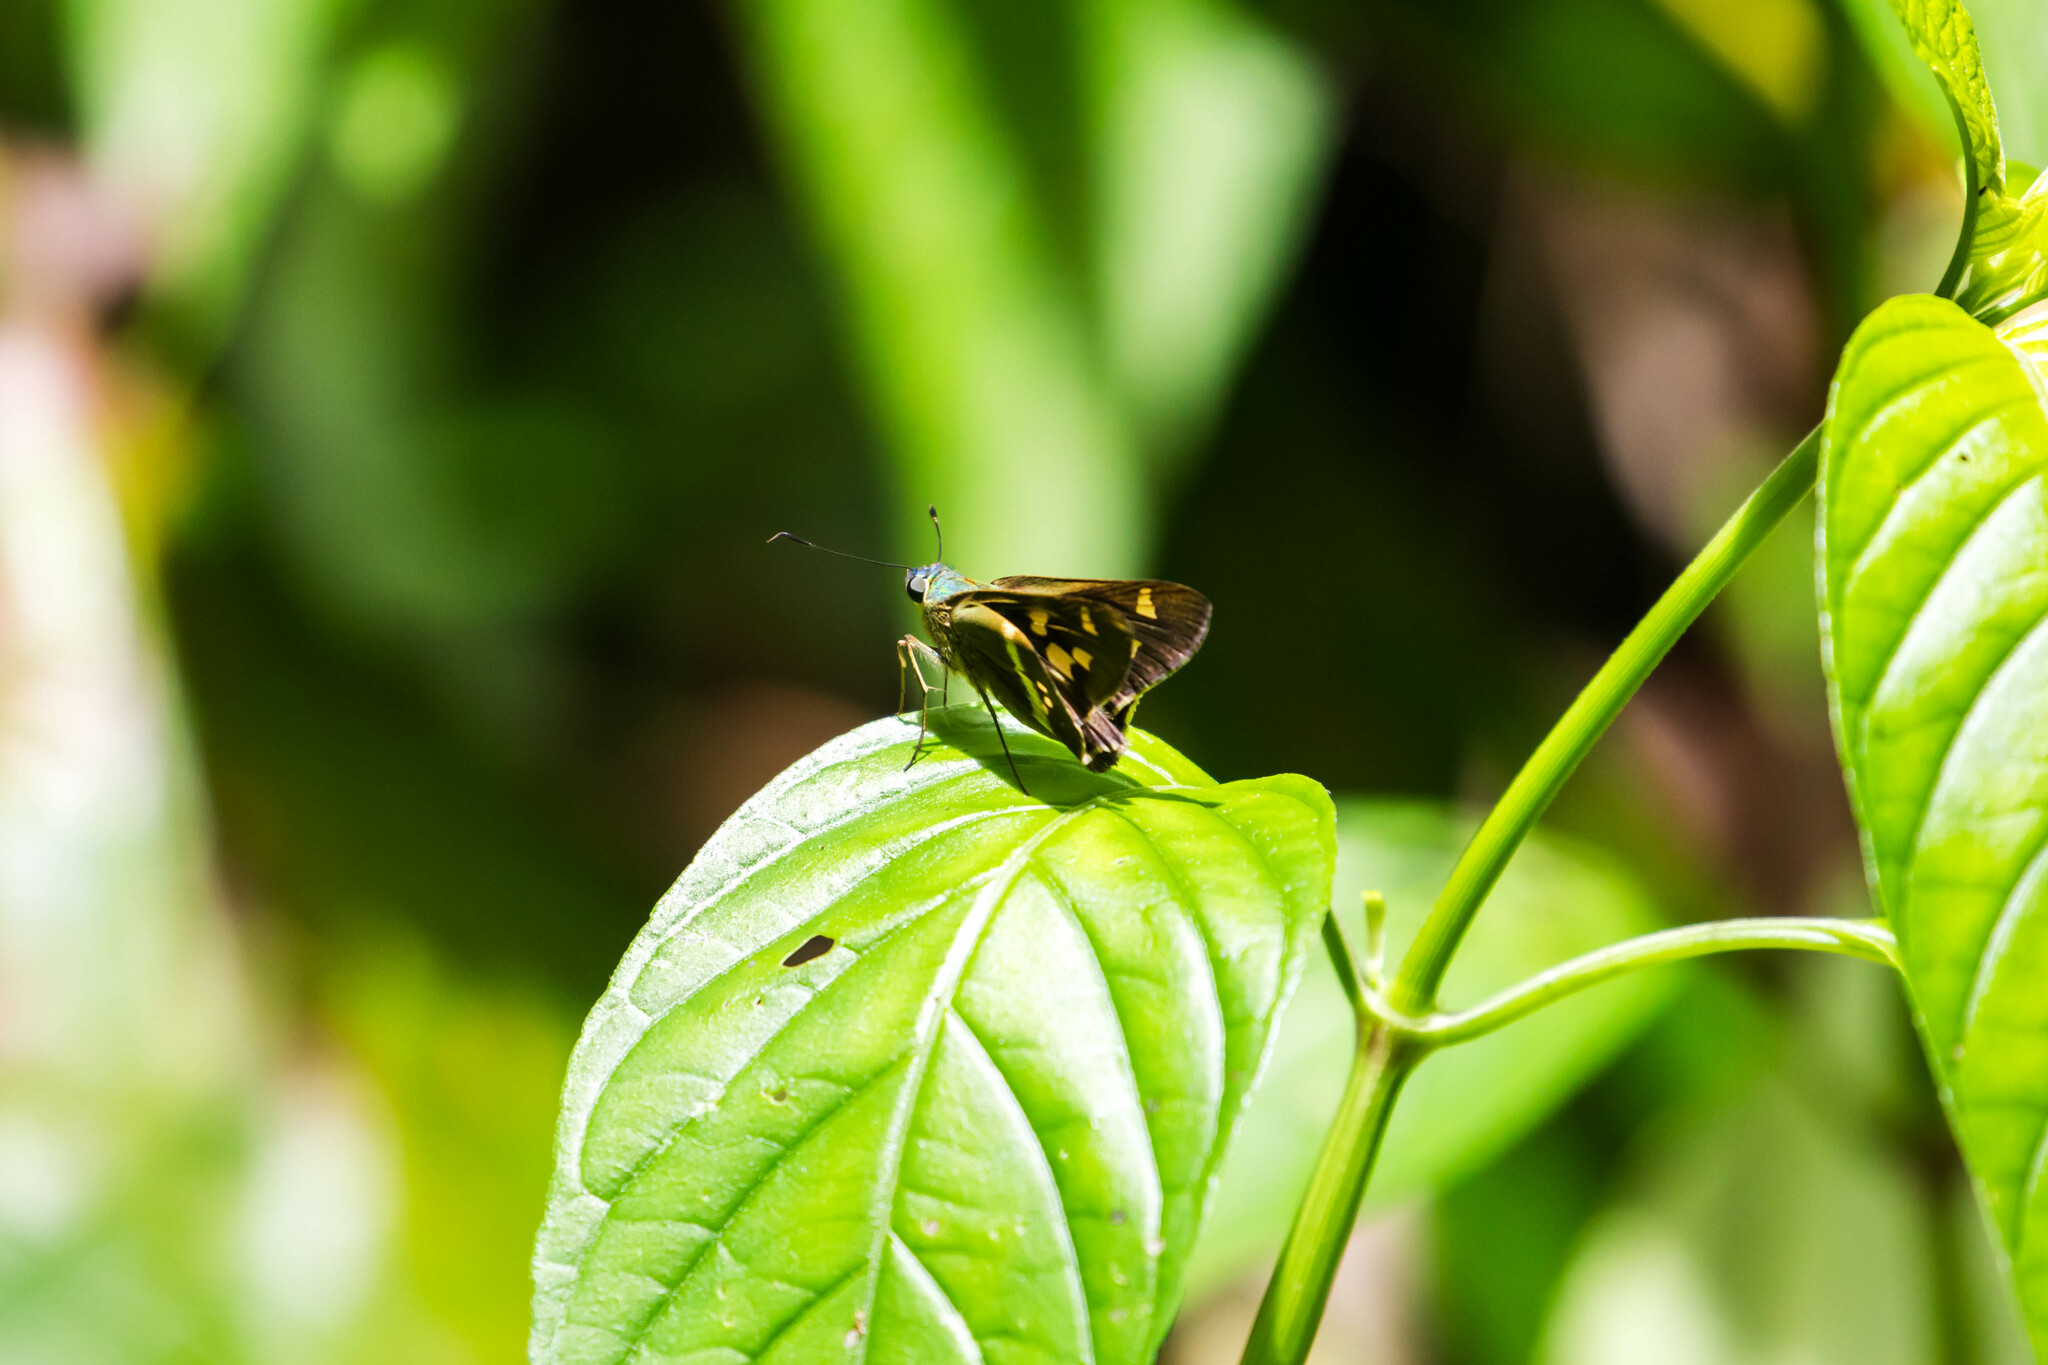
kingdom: Animalia
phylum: Arthropoda
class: Insecta
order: Lepidoptera
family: Hesperiidae
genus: Niconiades
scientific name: Niconiades nikko
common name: Nikko skipper
